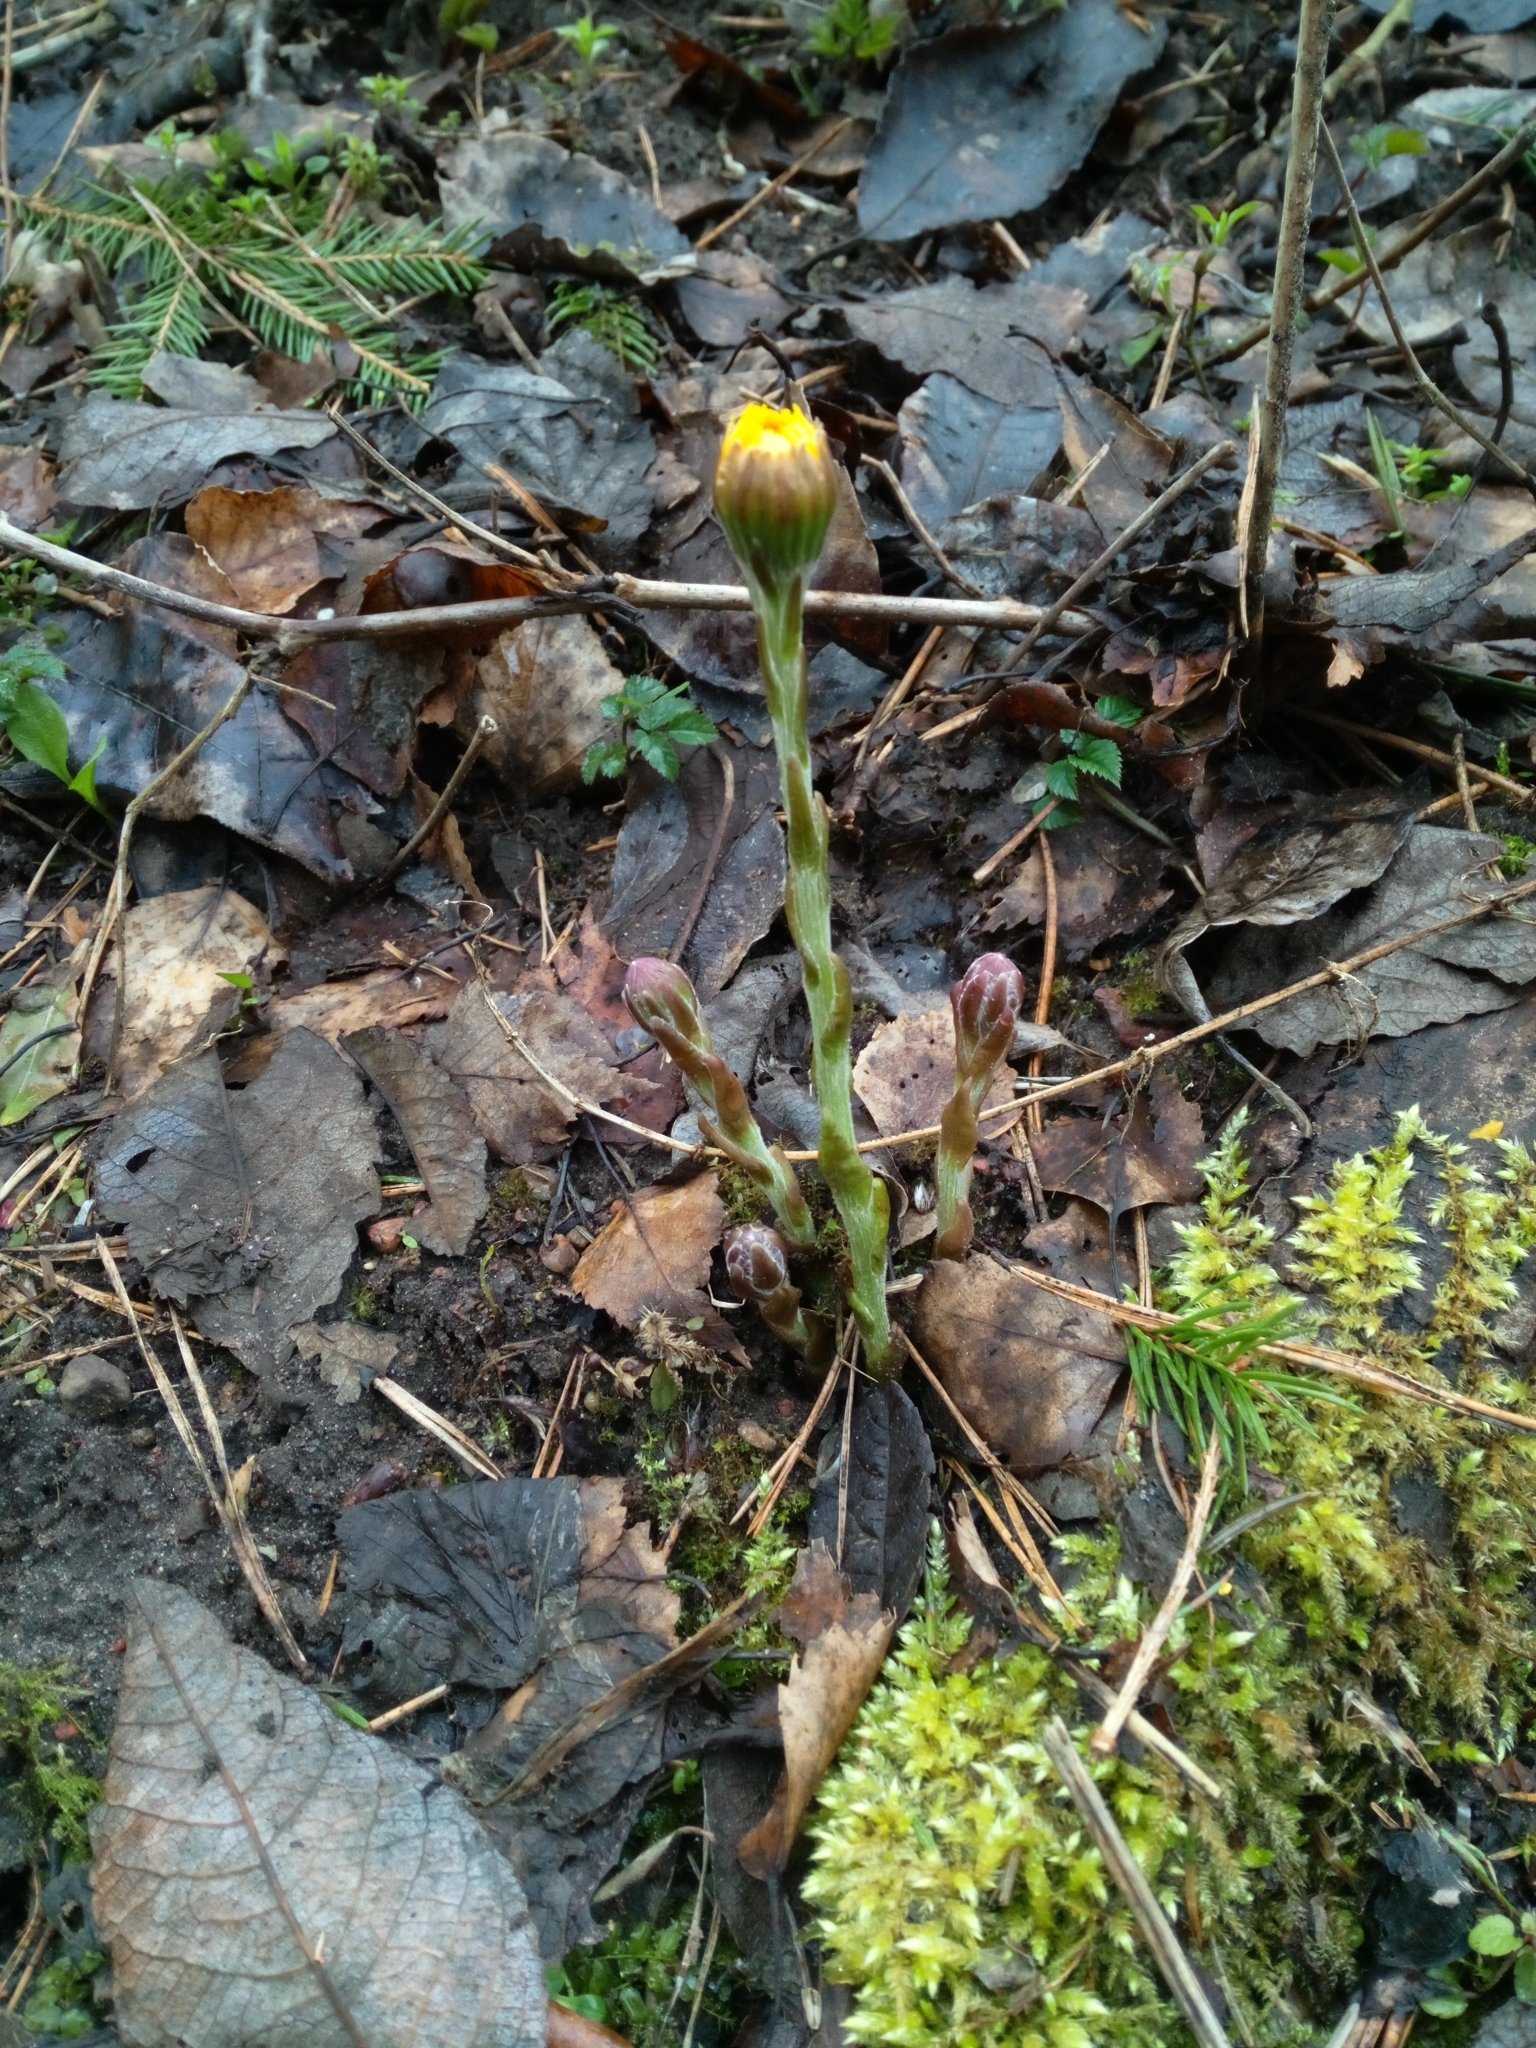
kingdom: Plantae
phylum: Tracheophyta
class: Magnoliopsida
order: Asterales
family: Asteraceae
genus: Tussilago
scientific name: Tussilago farfara
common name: Coltsfoot
